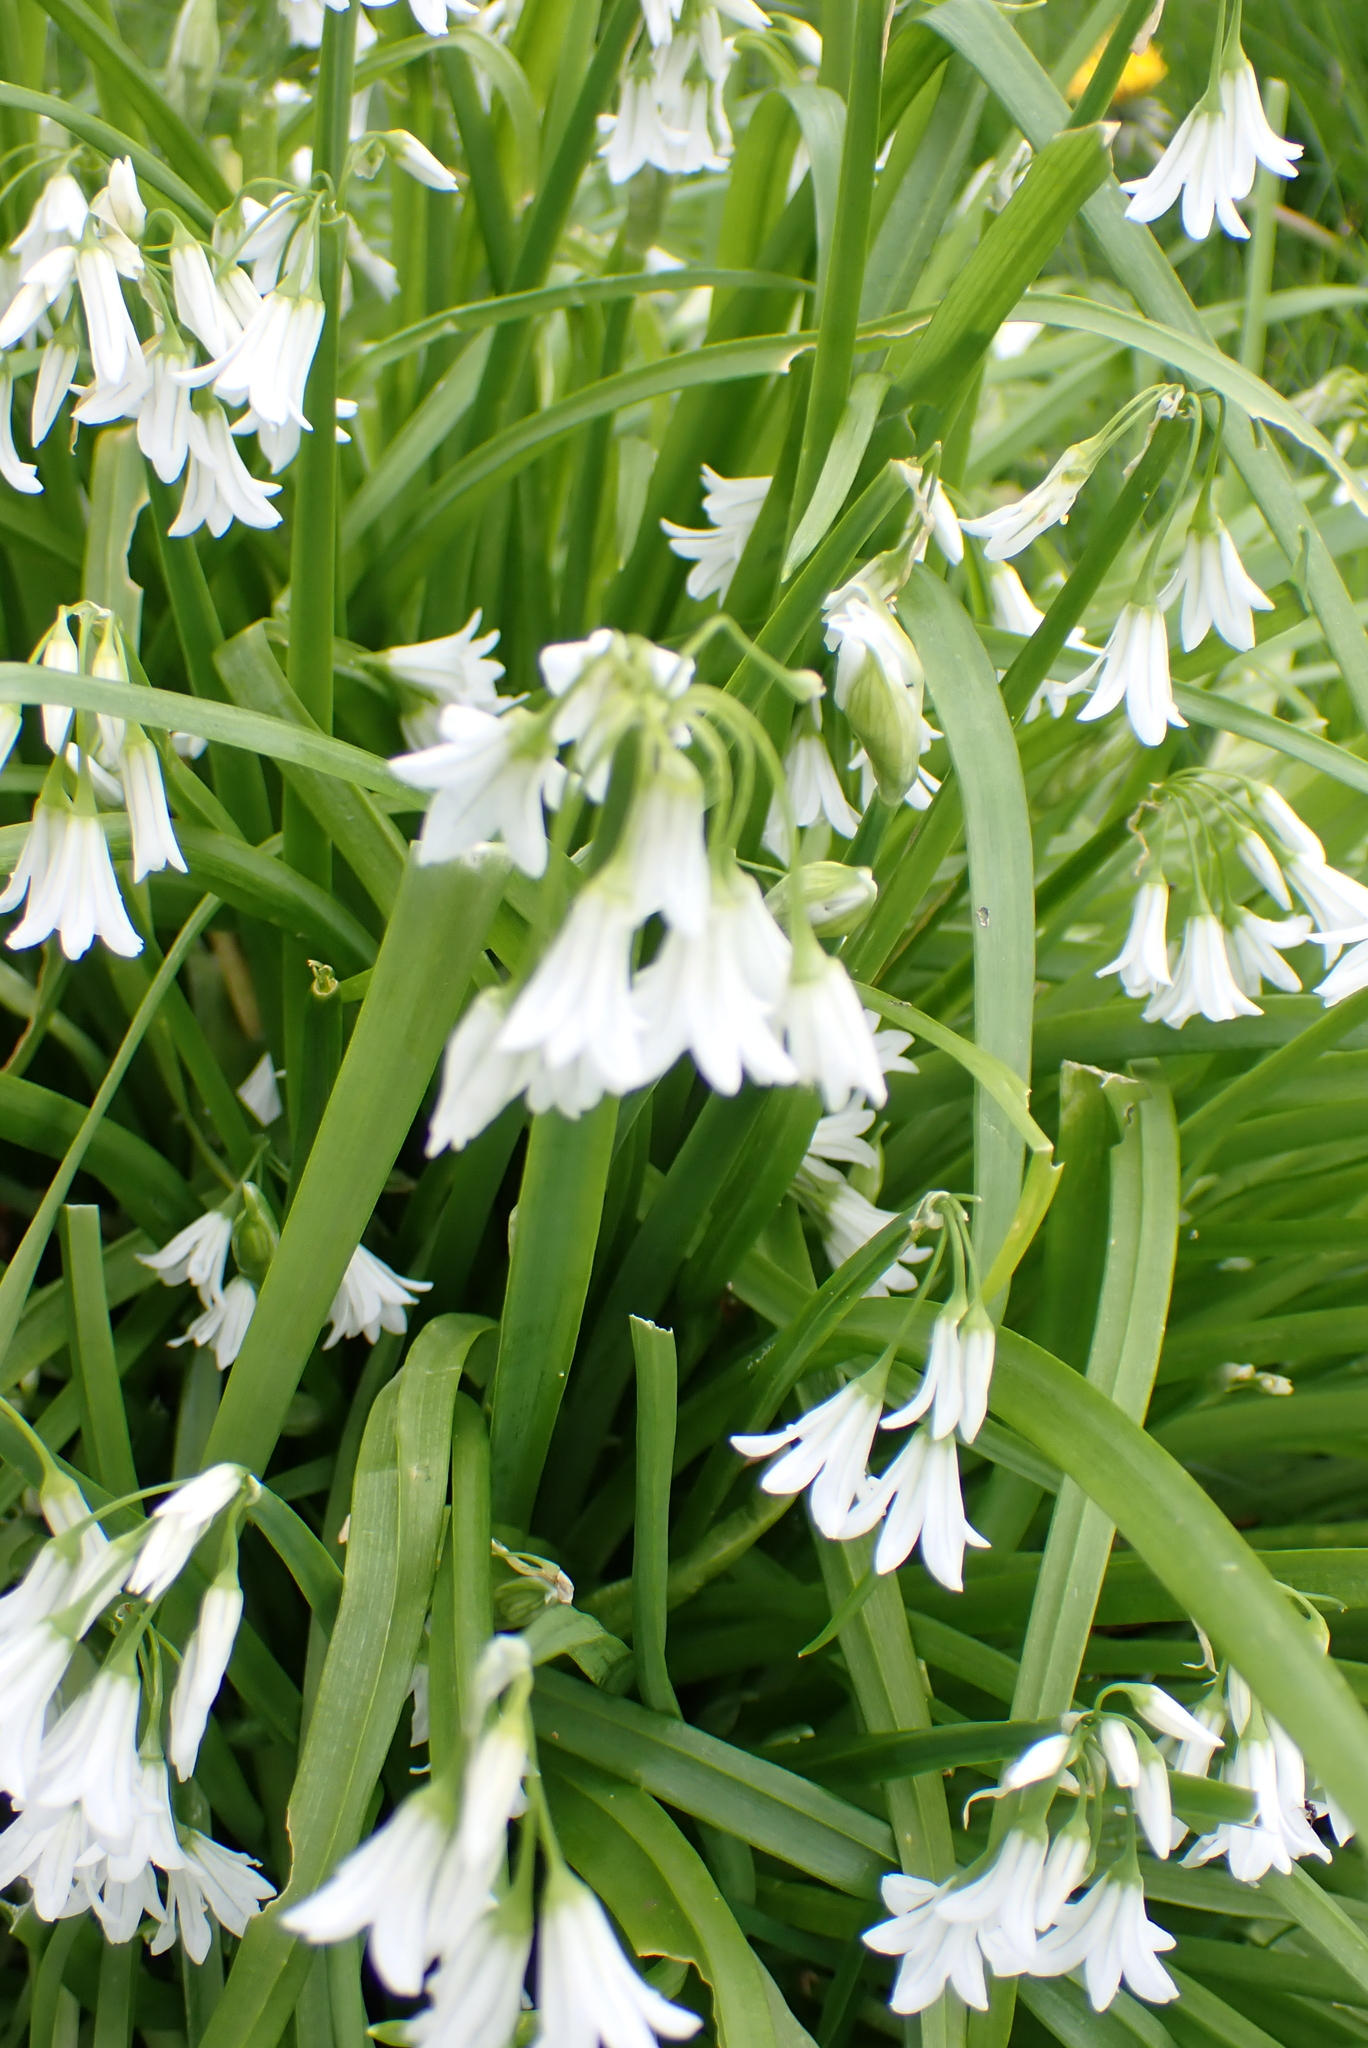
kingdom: Plantae
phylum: Tracheophyta
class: Liliopsida
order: Asparagales
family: Amaryllidaceae
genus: Allium
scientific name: Allium triquetrum
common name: Three-cornered garlic
